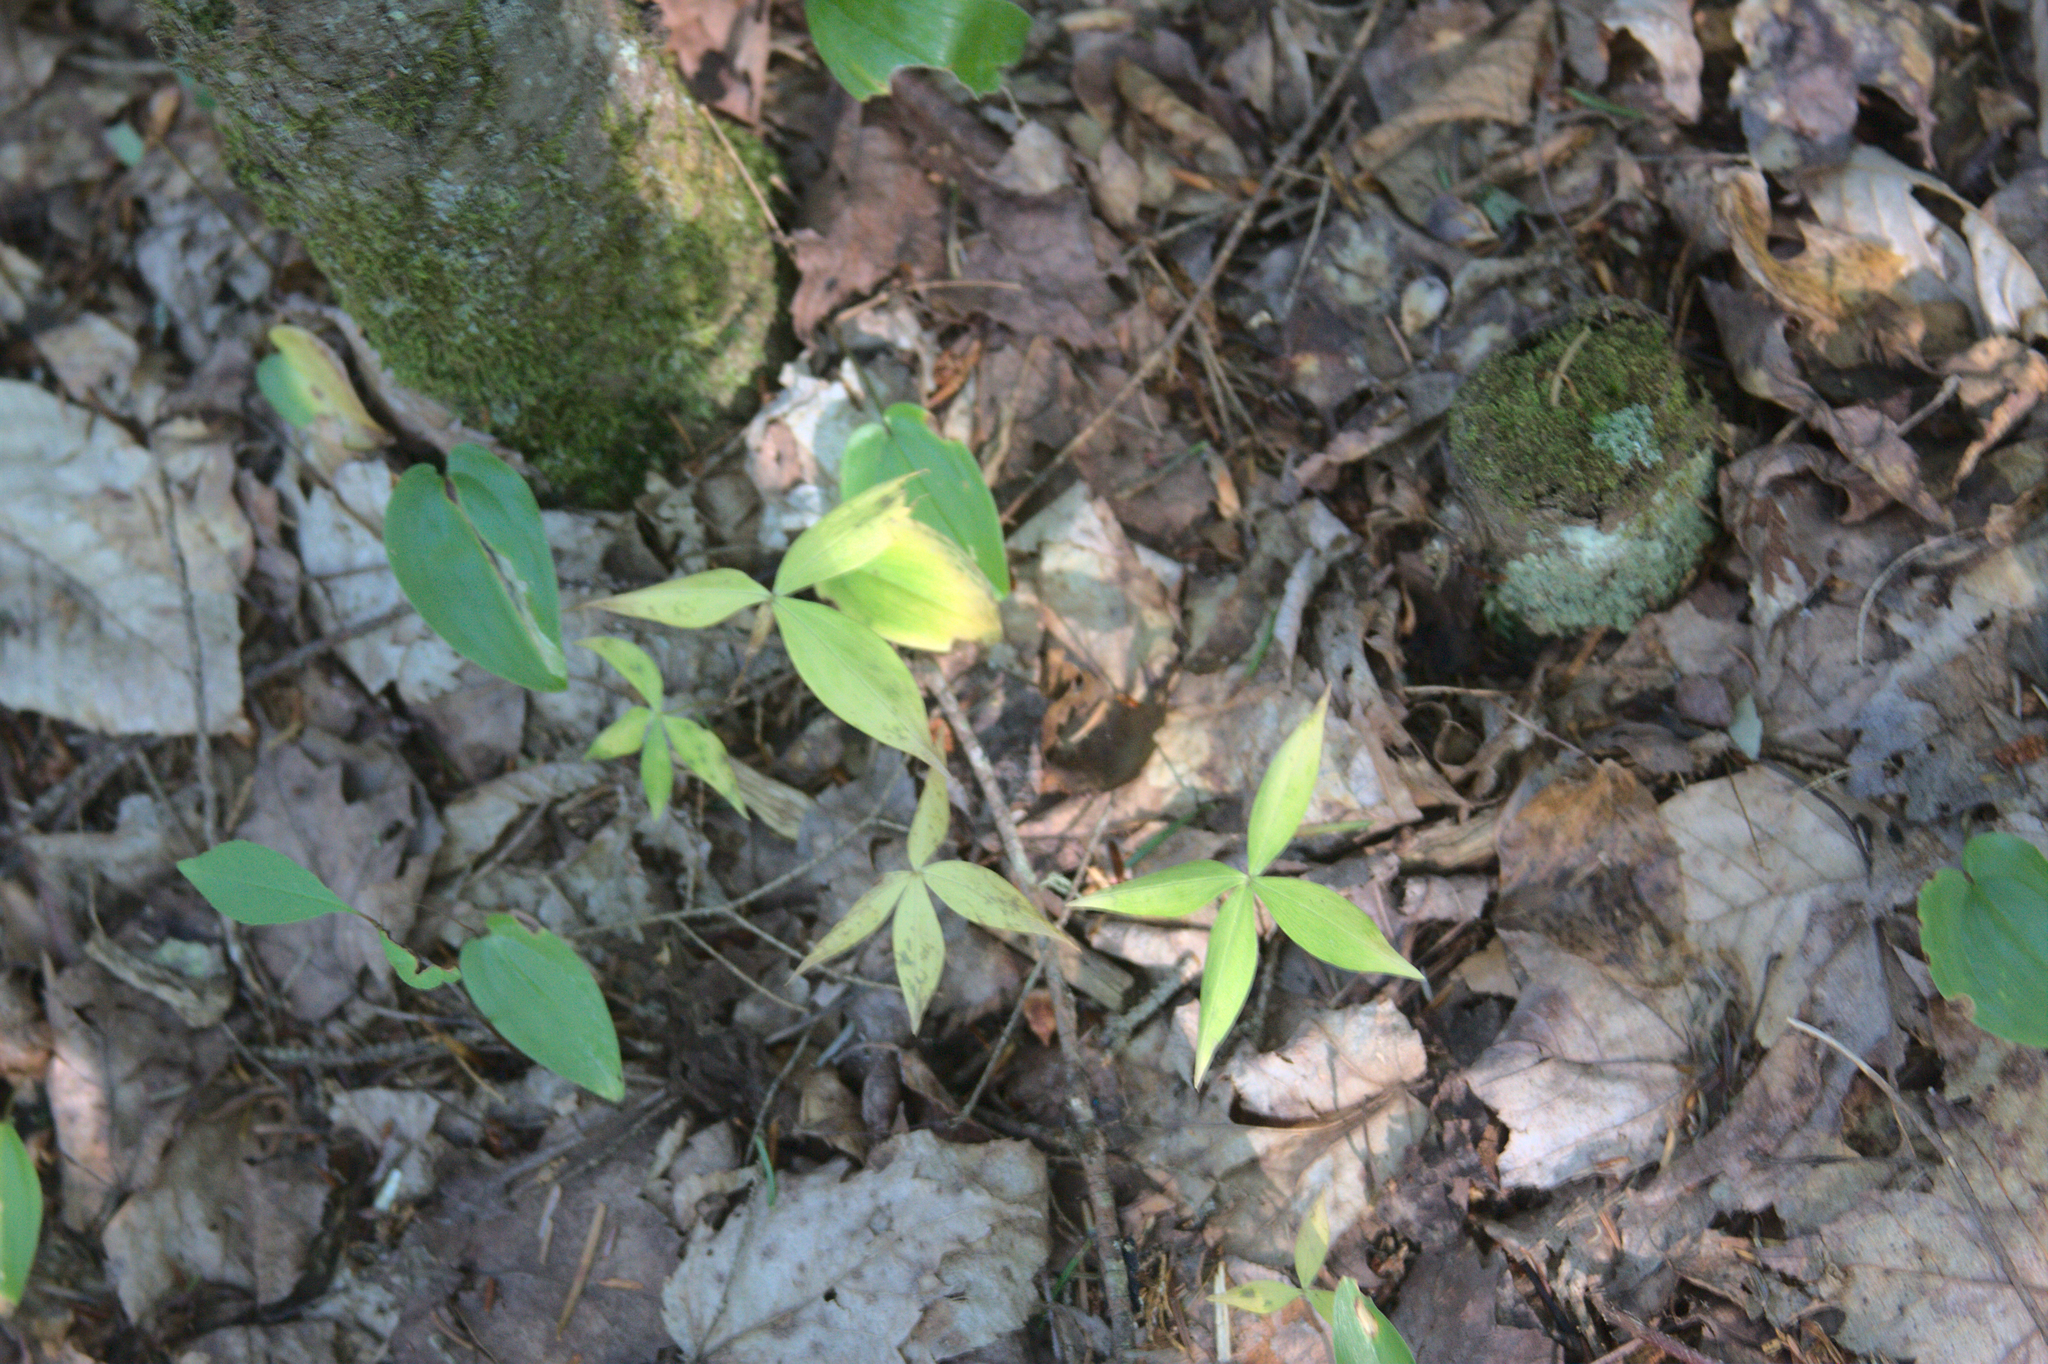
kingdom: Plantae
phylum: Tracheophyta
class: Liliopsida
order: Asparagales
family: Asparagaceae
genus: Maianthemum
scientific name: Maianthemum canadense
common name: False lily-of-the-valley
